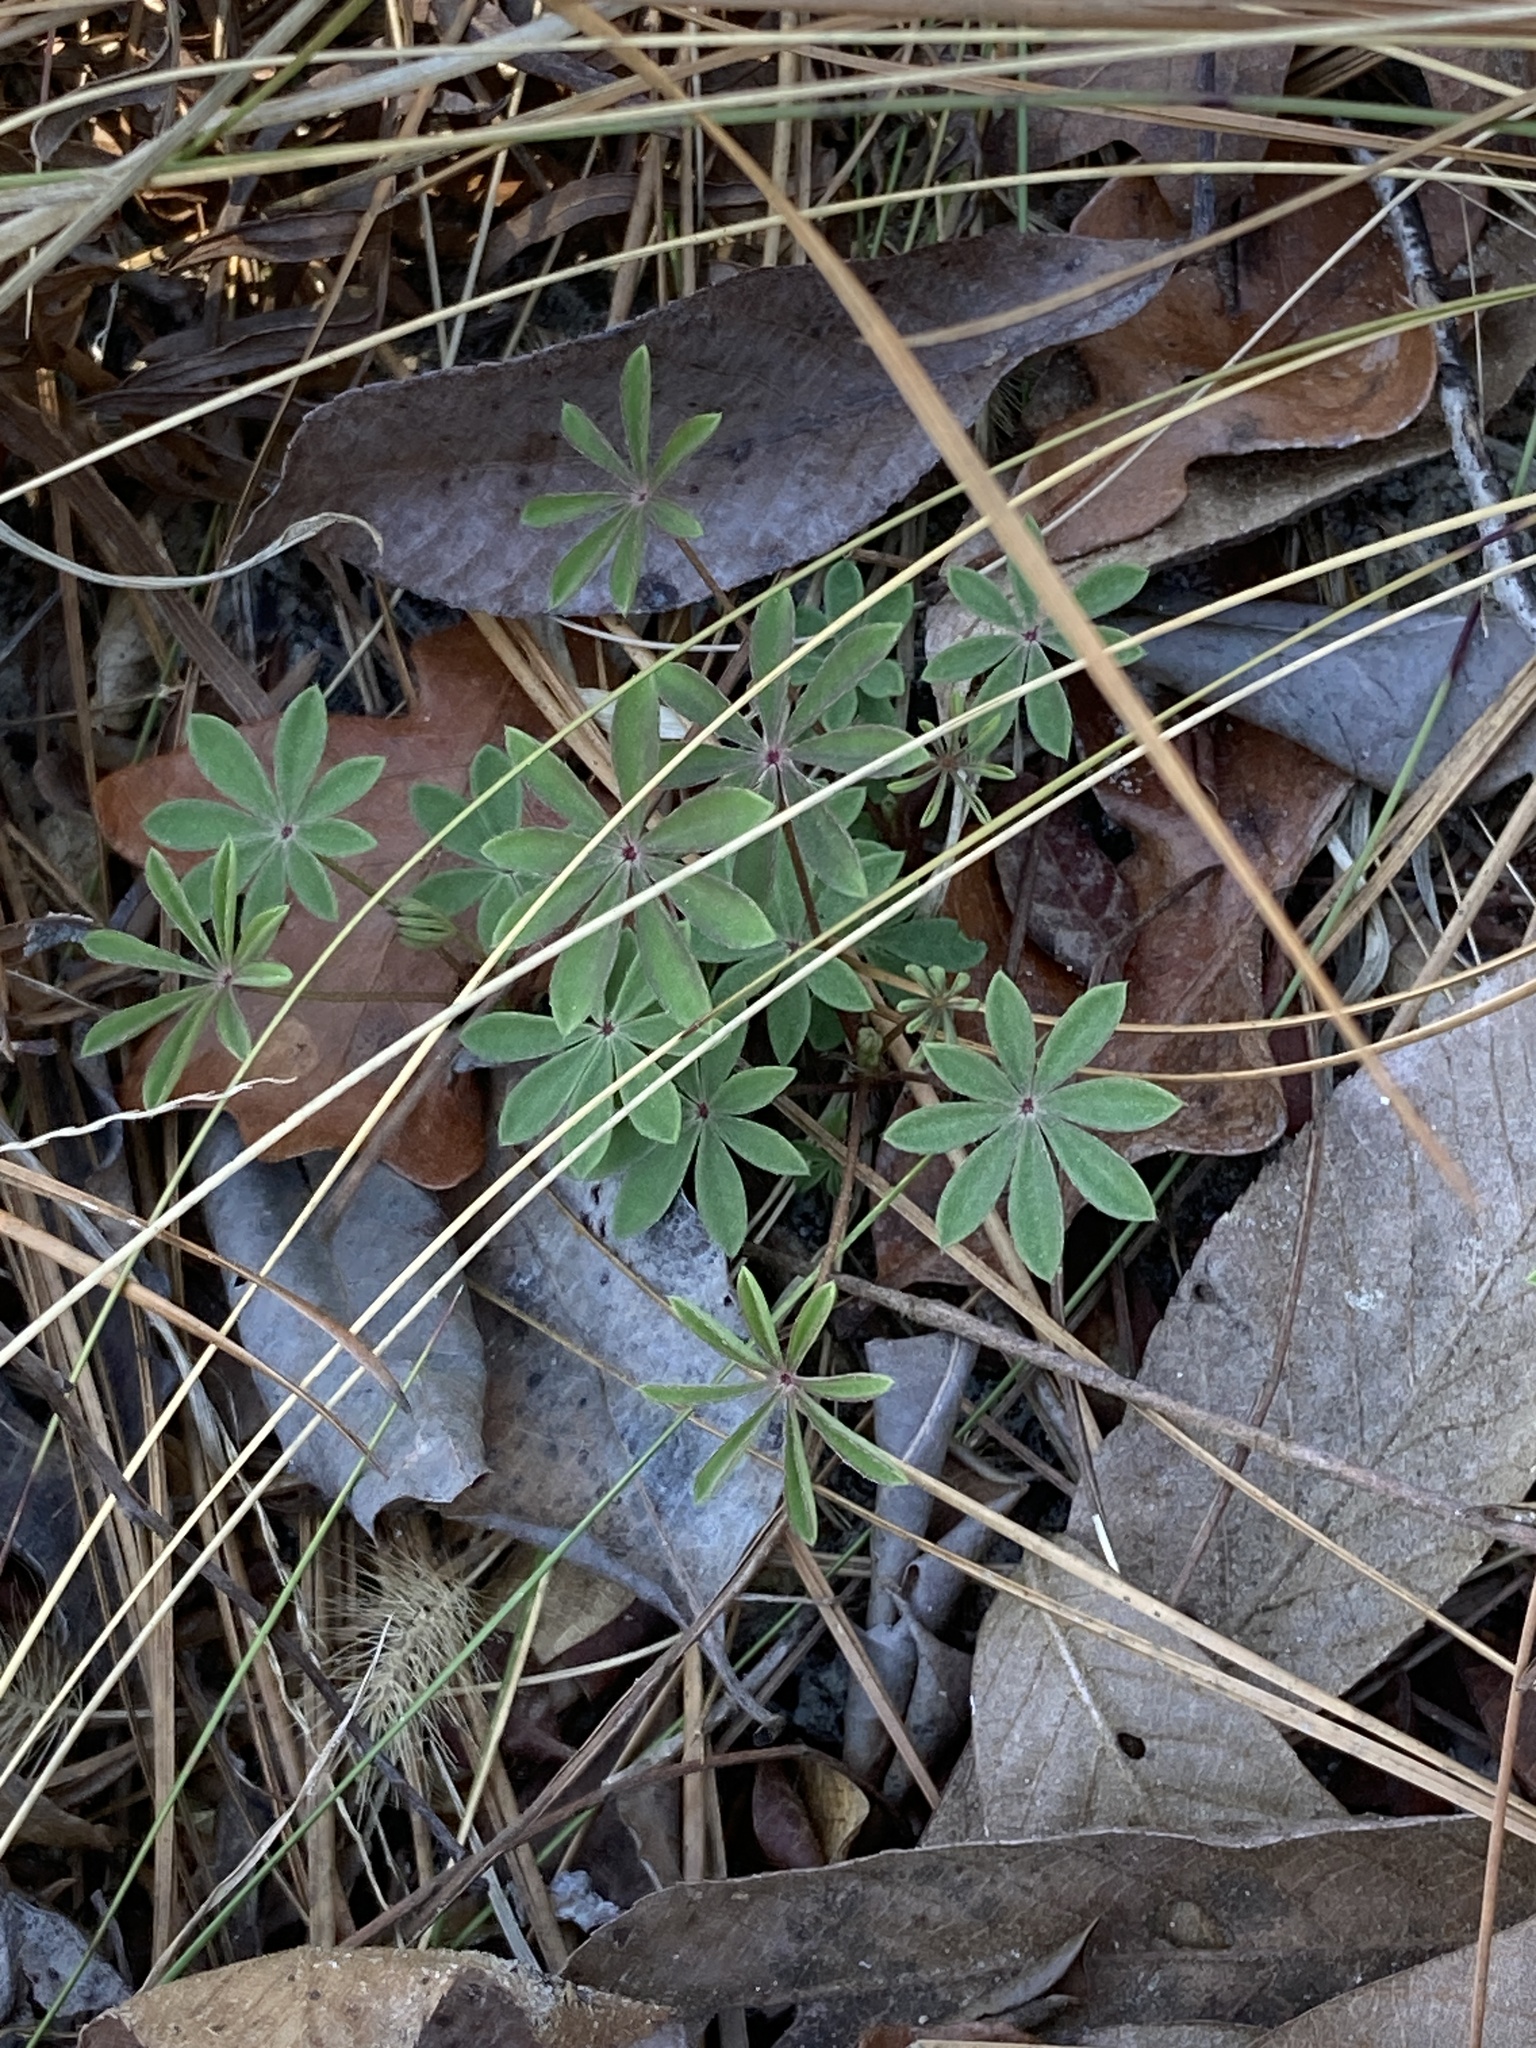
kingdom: Plantae
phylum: Tracheophyta
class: Magnoliopsida
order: Fabales
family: Fabaceae
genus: Lupinus
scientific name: Lupinus perennis
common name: Sundial lupine
